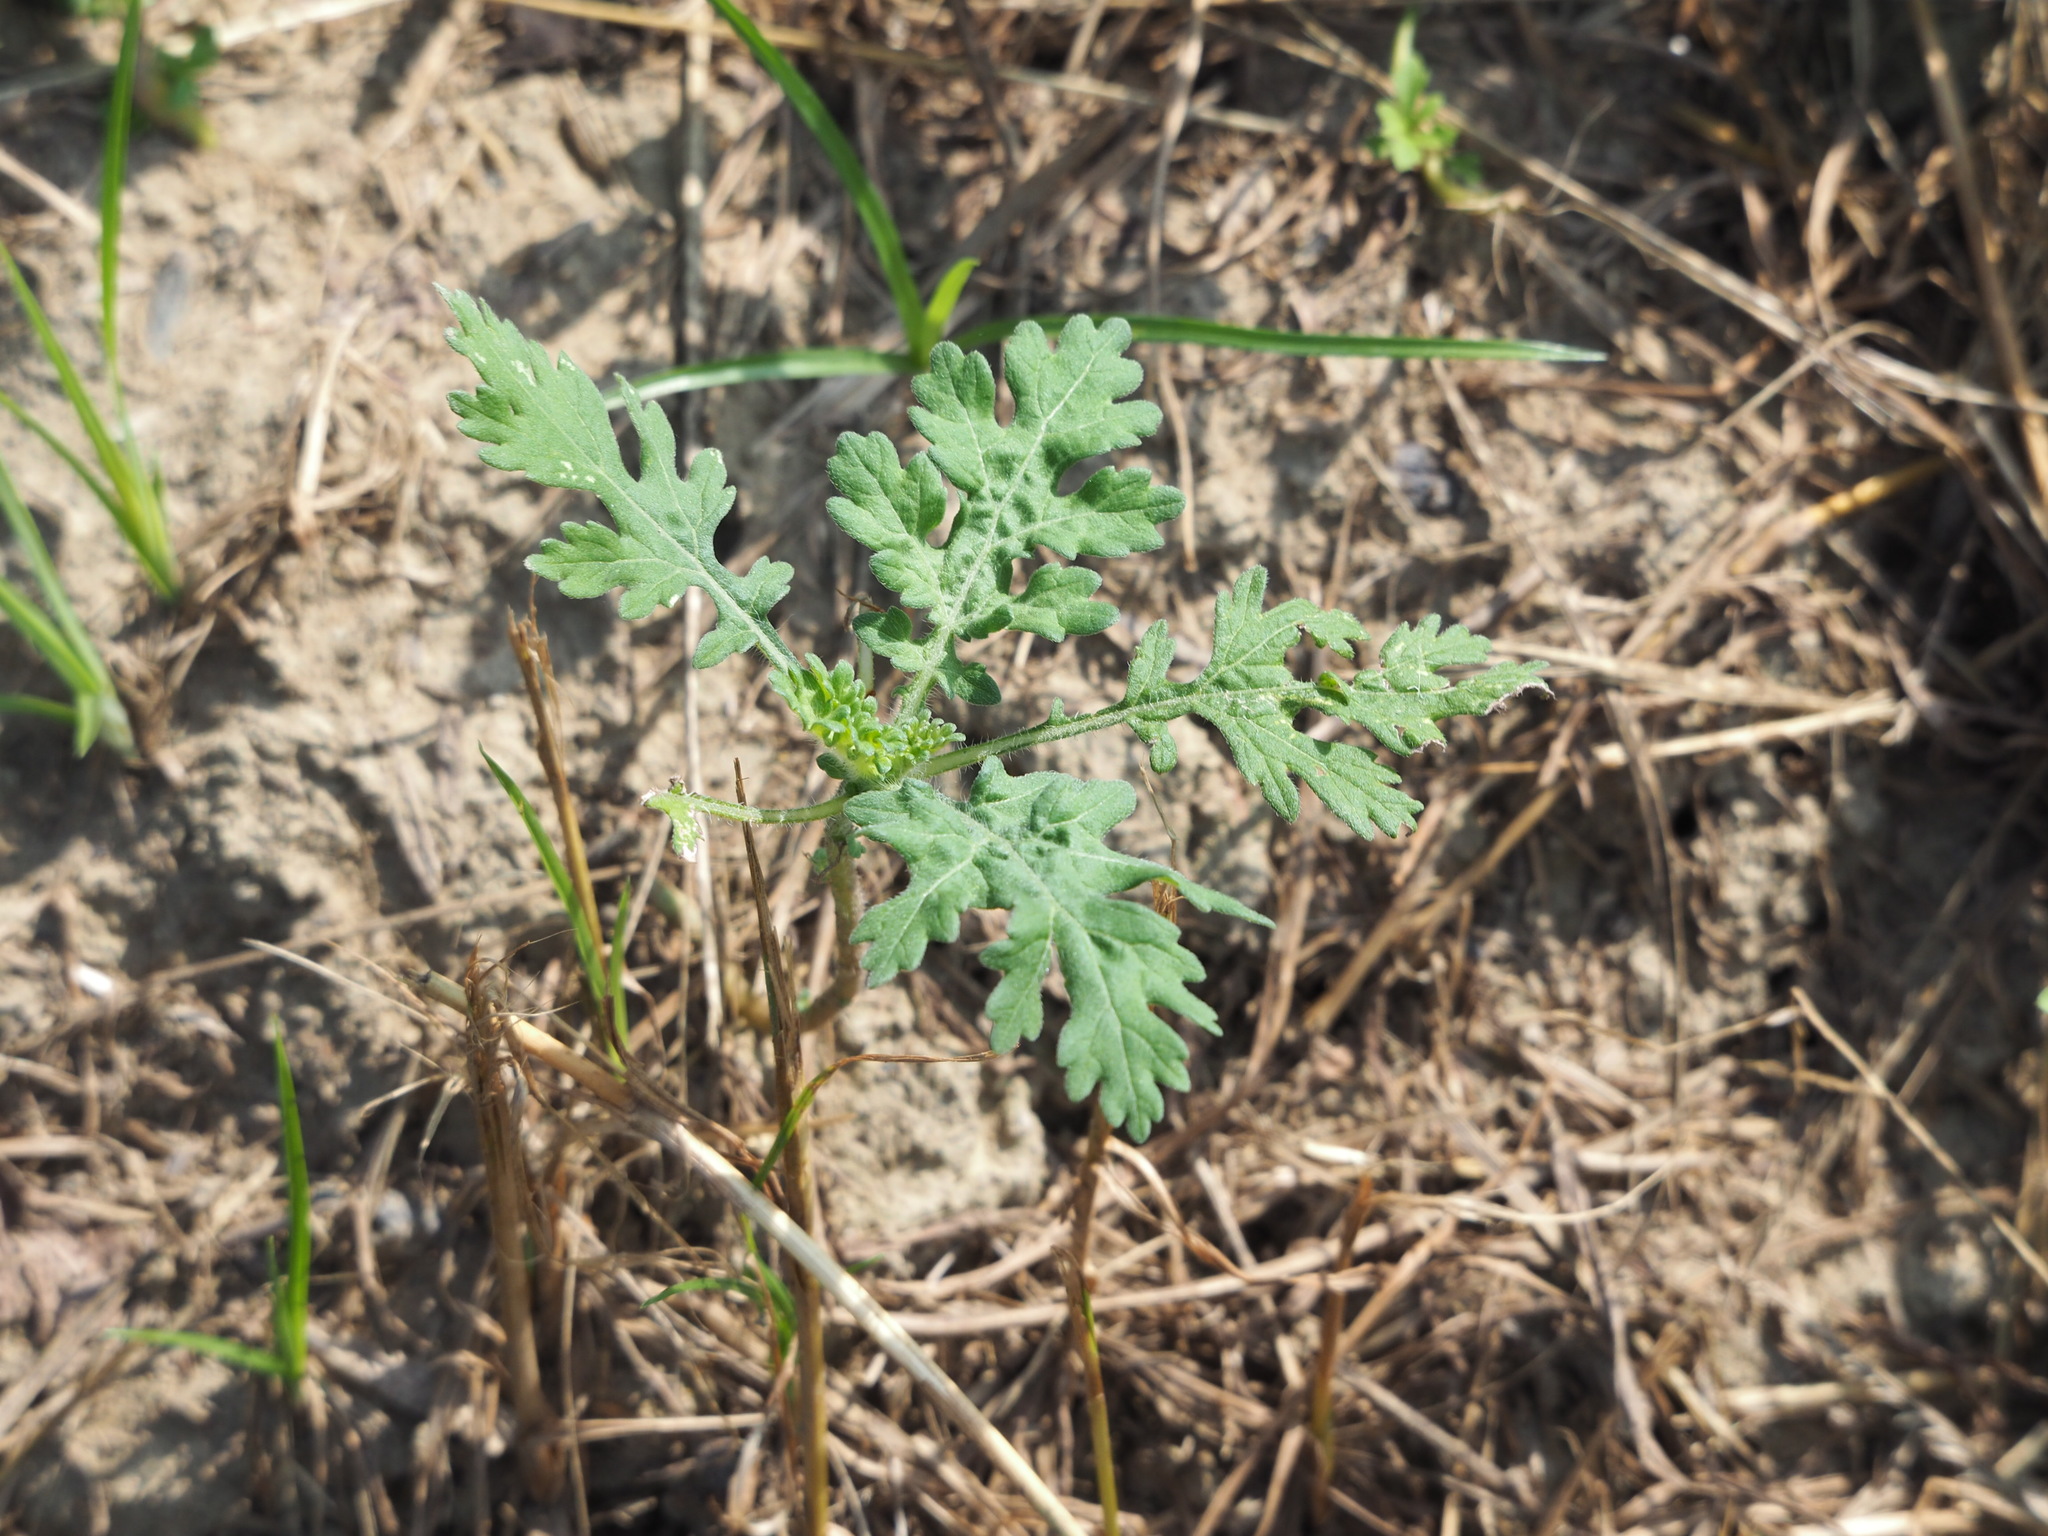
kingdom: Plantae
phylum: Tracheophyta
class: Magnoliopsida
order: Asterales
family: Asteraceae
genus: Parthenium
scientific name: Parthenium hysterophorus
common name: Santa maria feverfew
